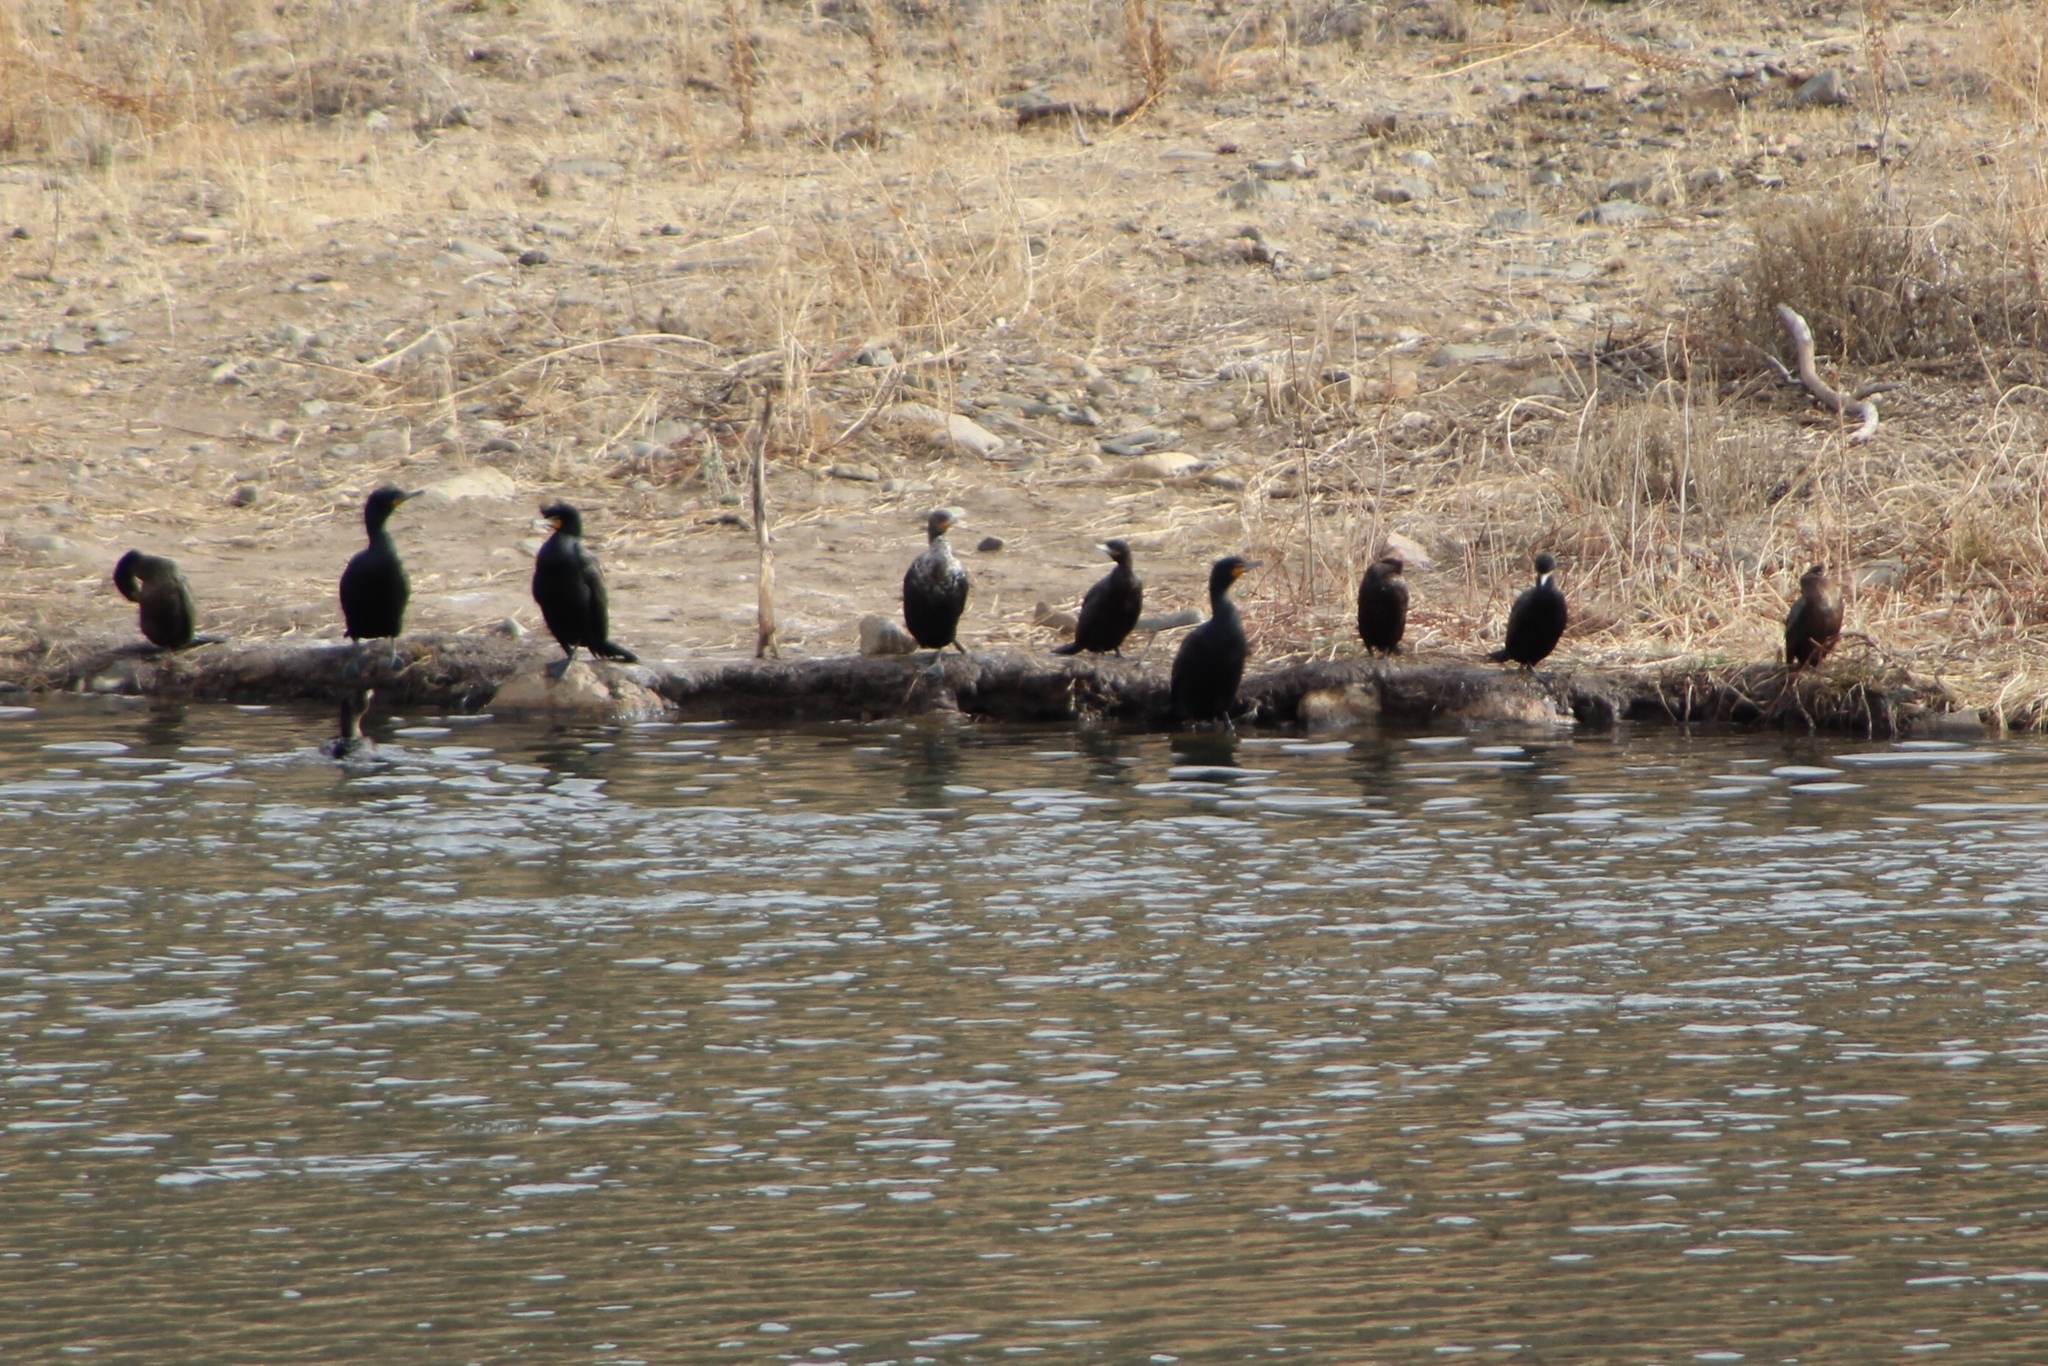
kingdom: Animalia
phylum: Chordata
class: Aves
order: Suliformes
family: Phalacrocoracidae
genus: Phalacrocorax
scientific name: Phalacrocorax auritus
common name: Double-crested cormorant
